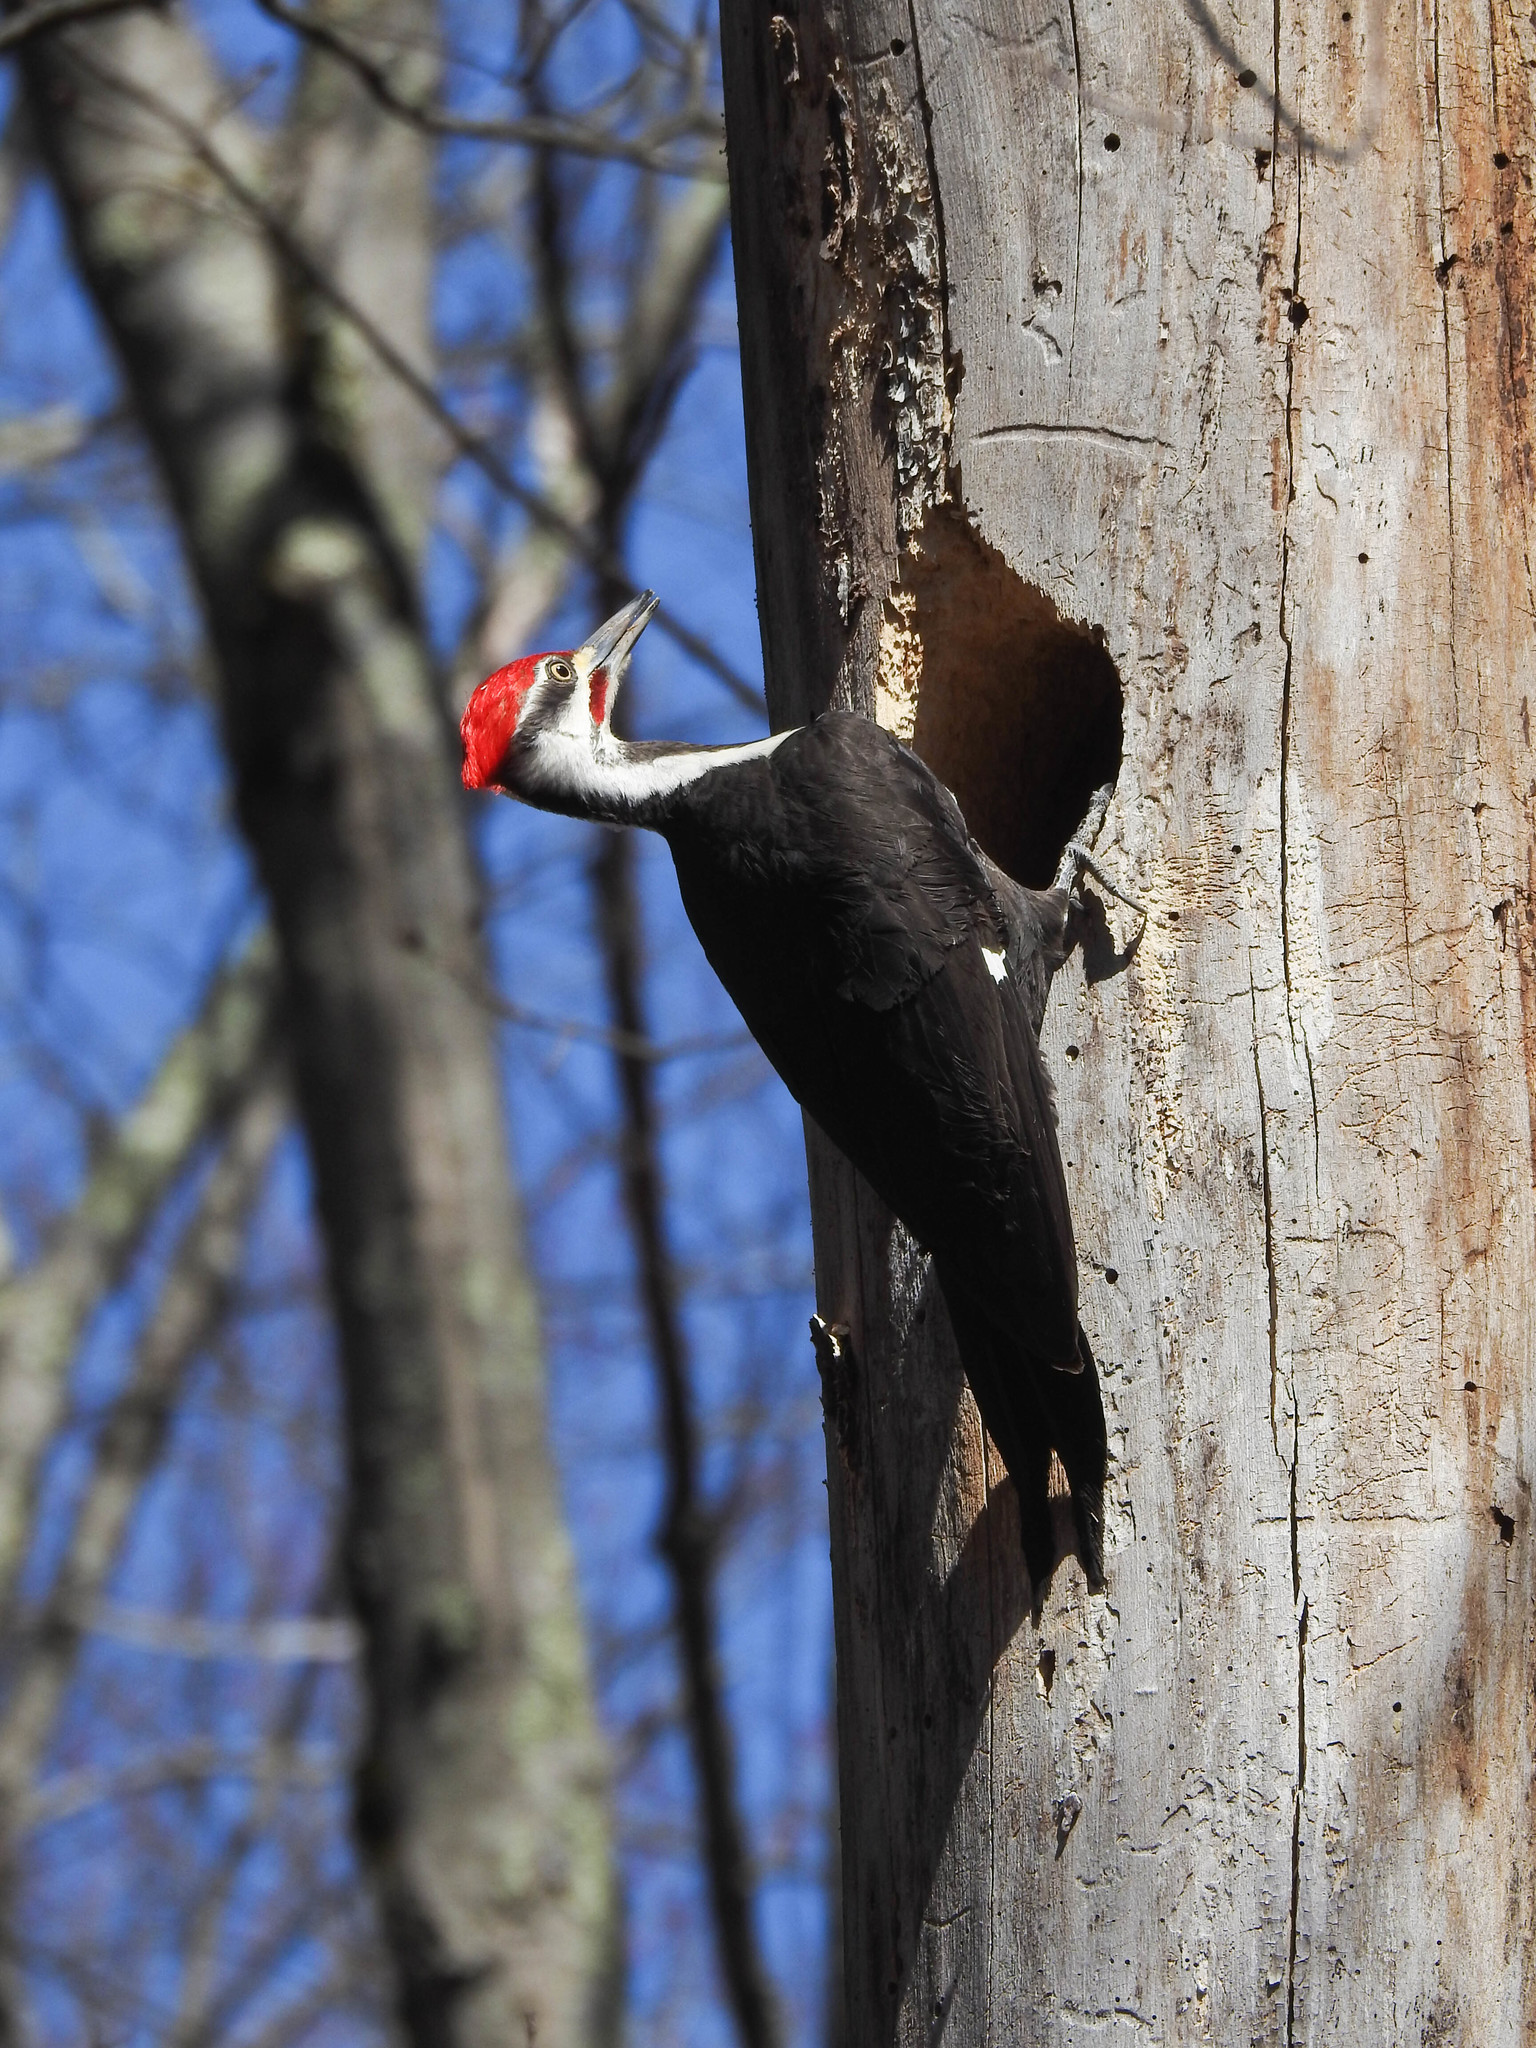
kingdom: Animalia
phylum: Chordata
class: Aves
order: Piciformes
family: Picidae
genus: Dryocopus
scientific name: Dryocopus pileatus
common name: Pileated woodpecker
